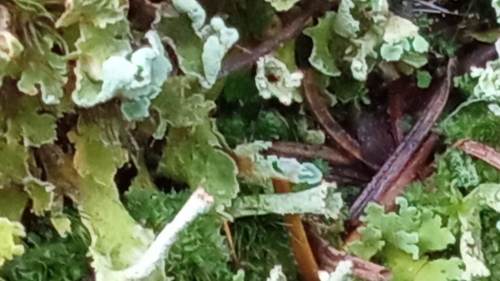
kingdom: Fungi
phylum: Ascomycota
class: Lecanoromycetes
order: Lecanorales
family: Cladoniaceae
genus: Cladonia
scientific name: Cladonia digitata
